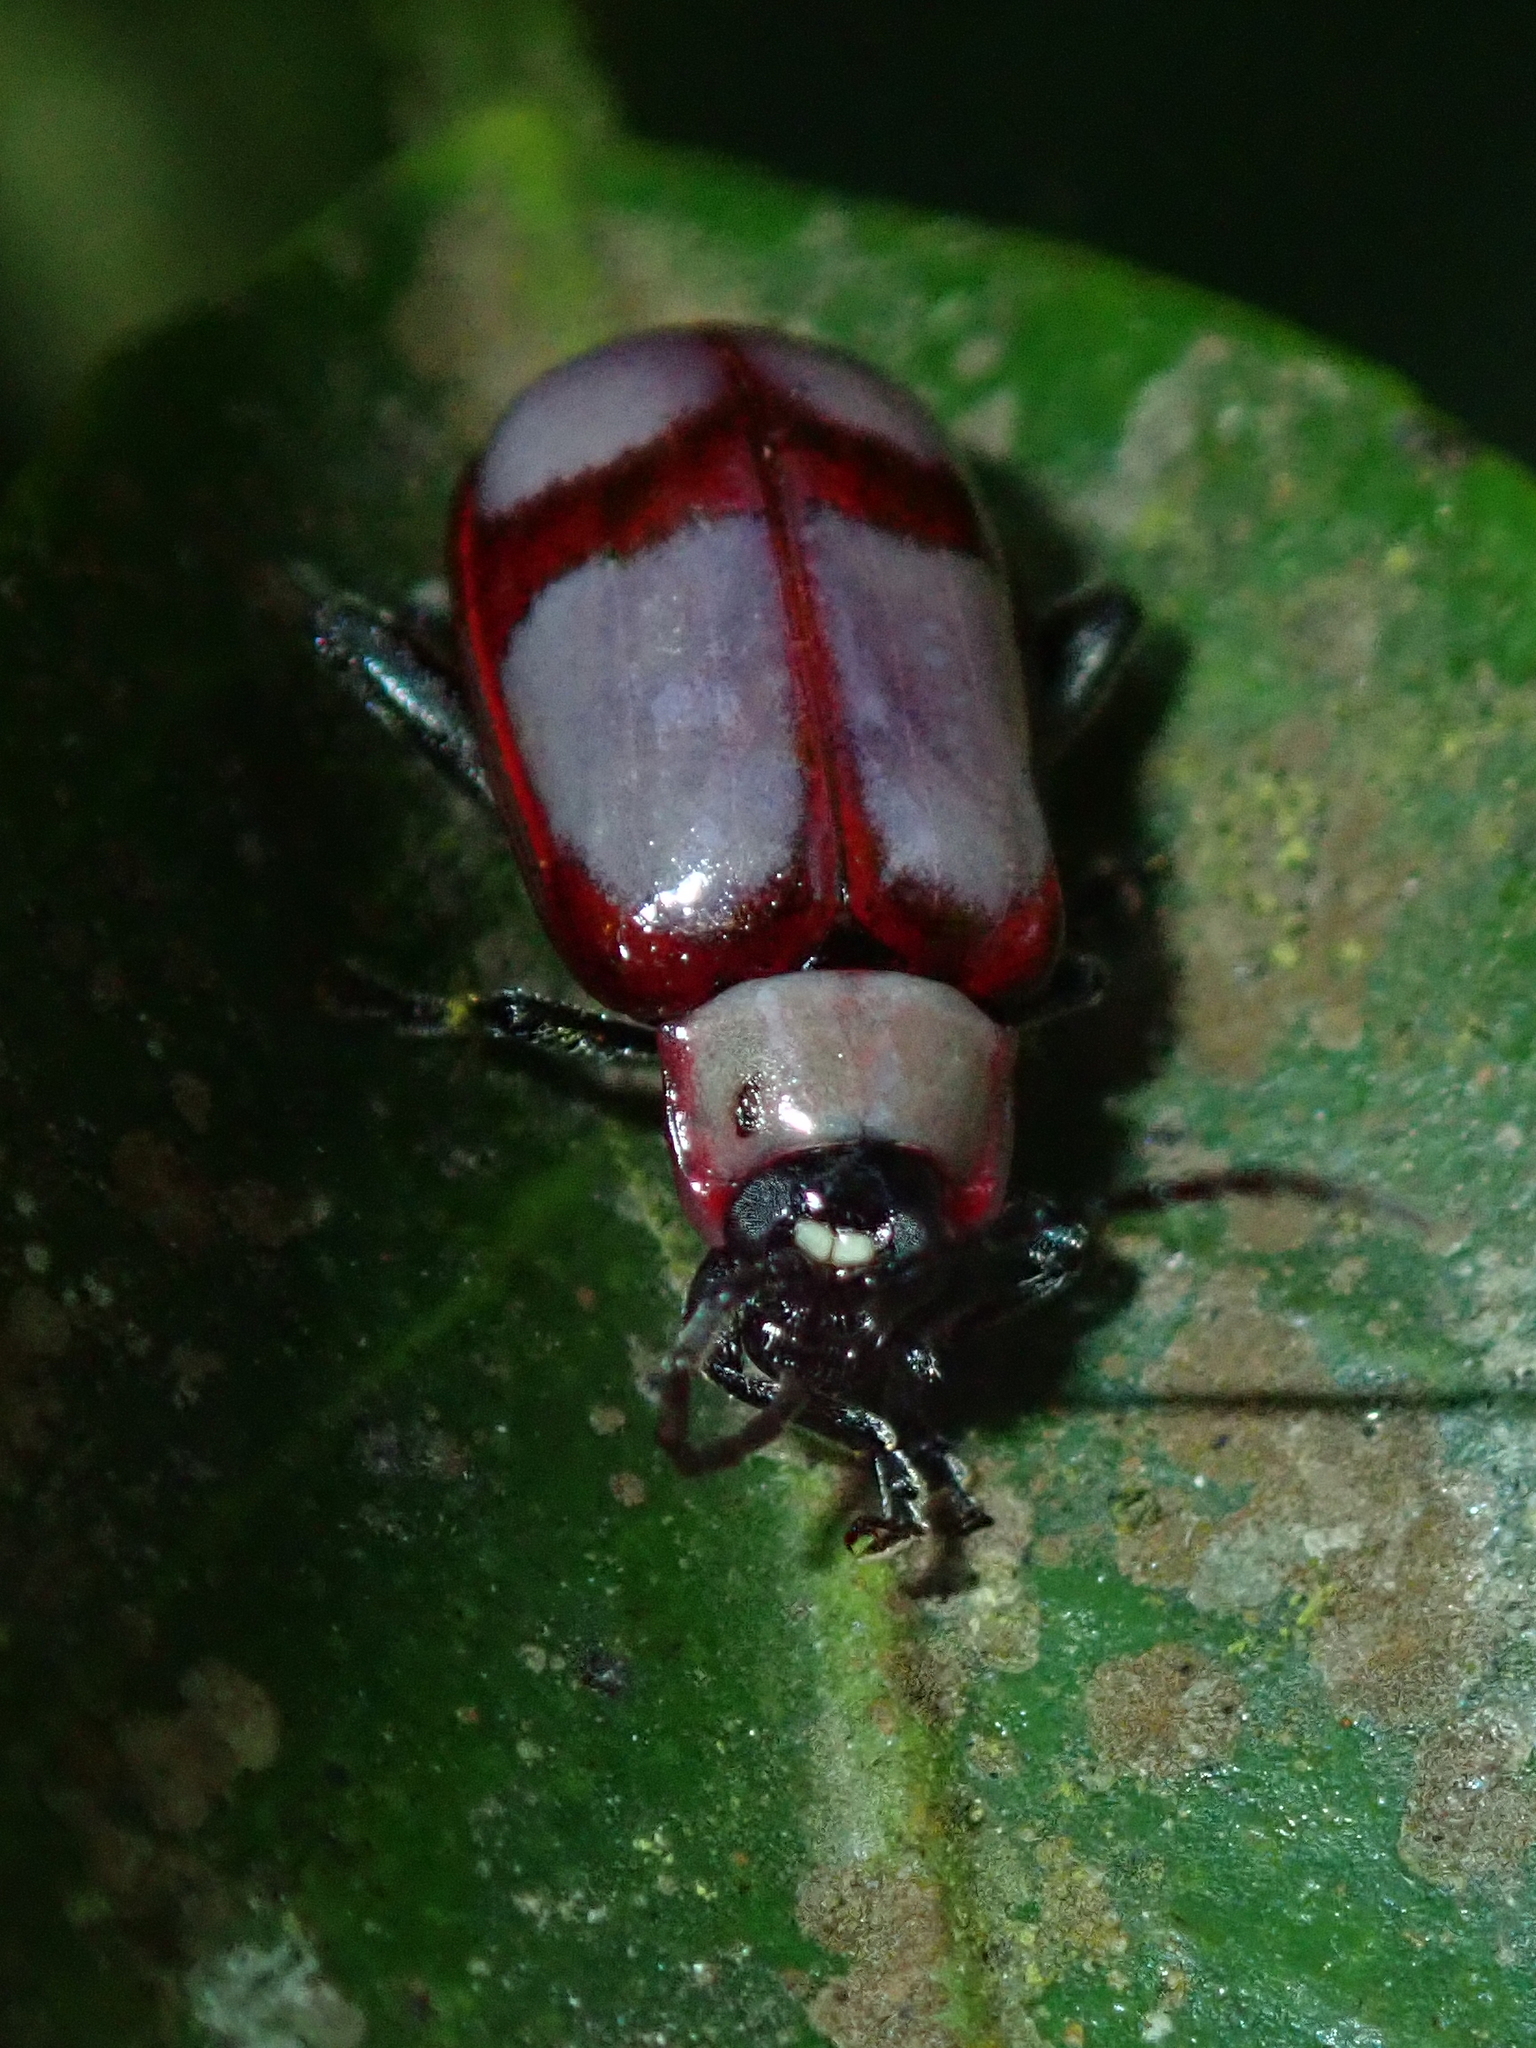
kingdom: Animalia
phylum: Arthropoda
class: Insecta
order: Coleoptera
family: Chrysomelidae
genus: Omophoita
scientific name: Omophoita
